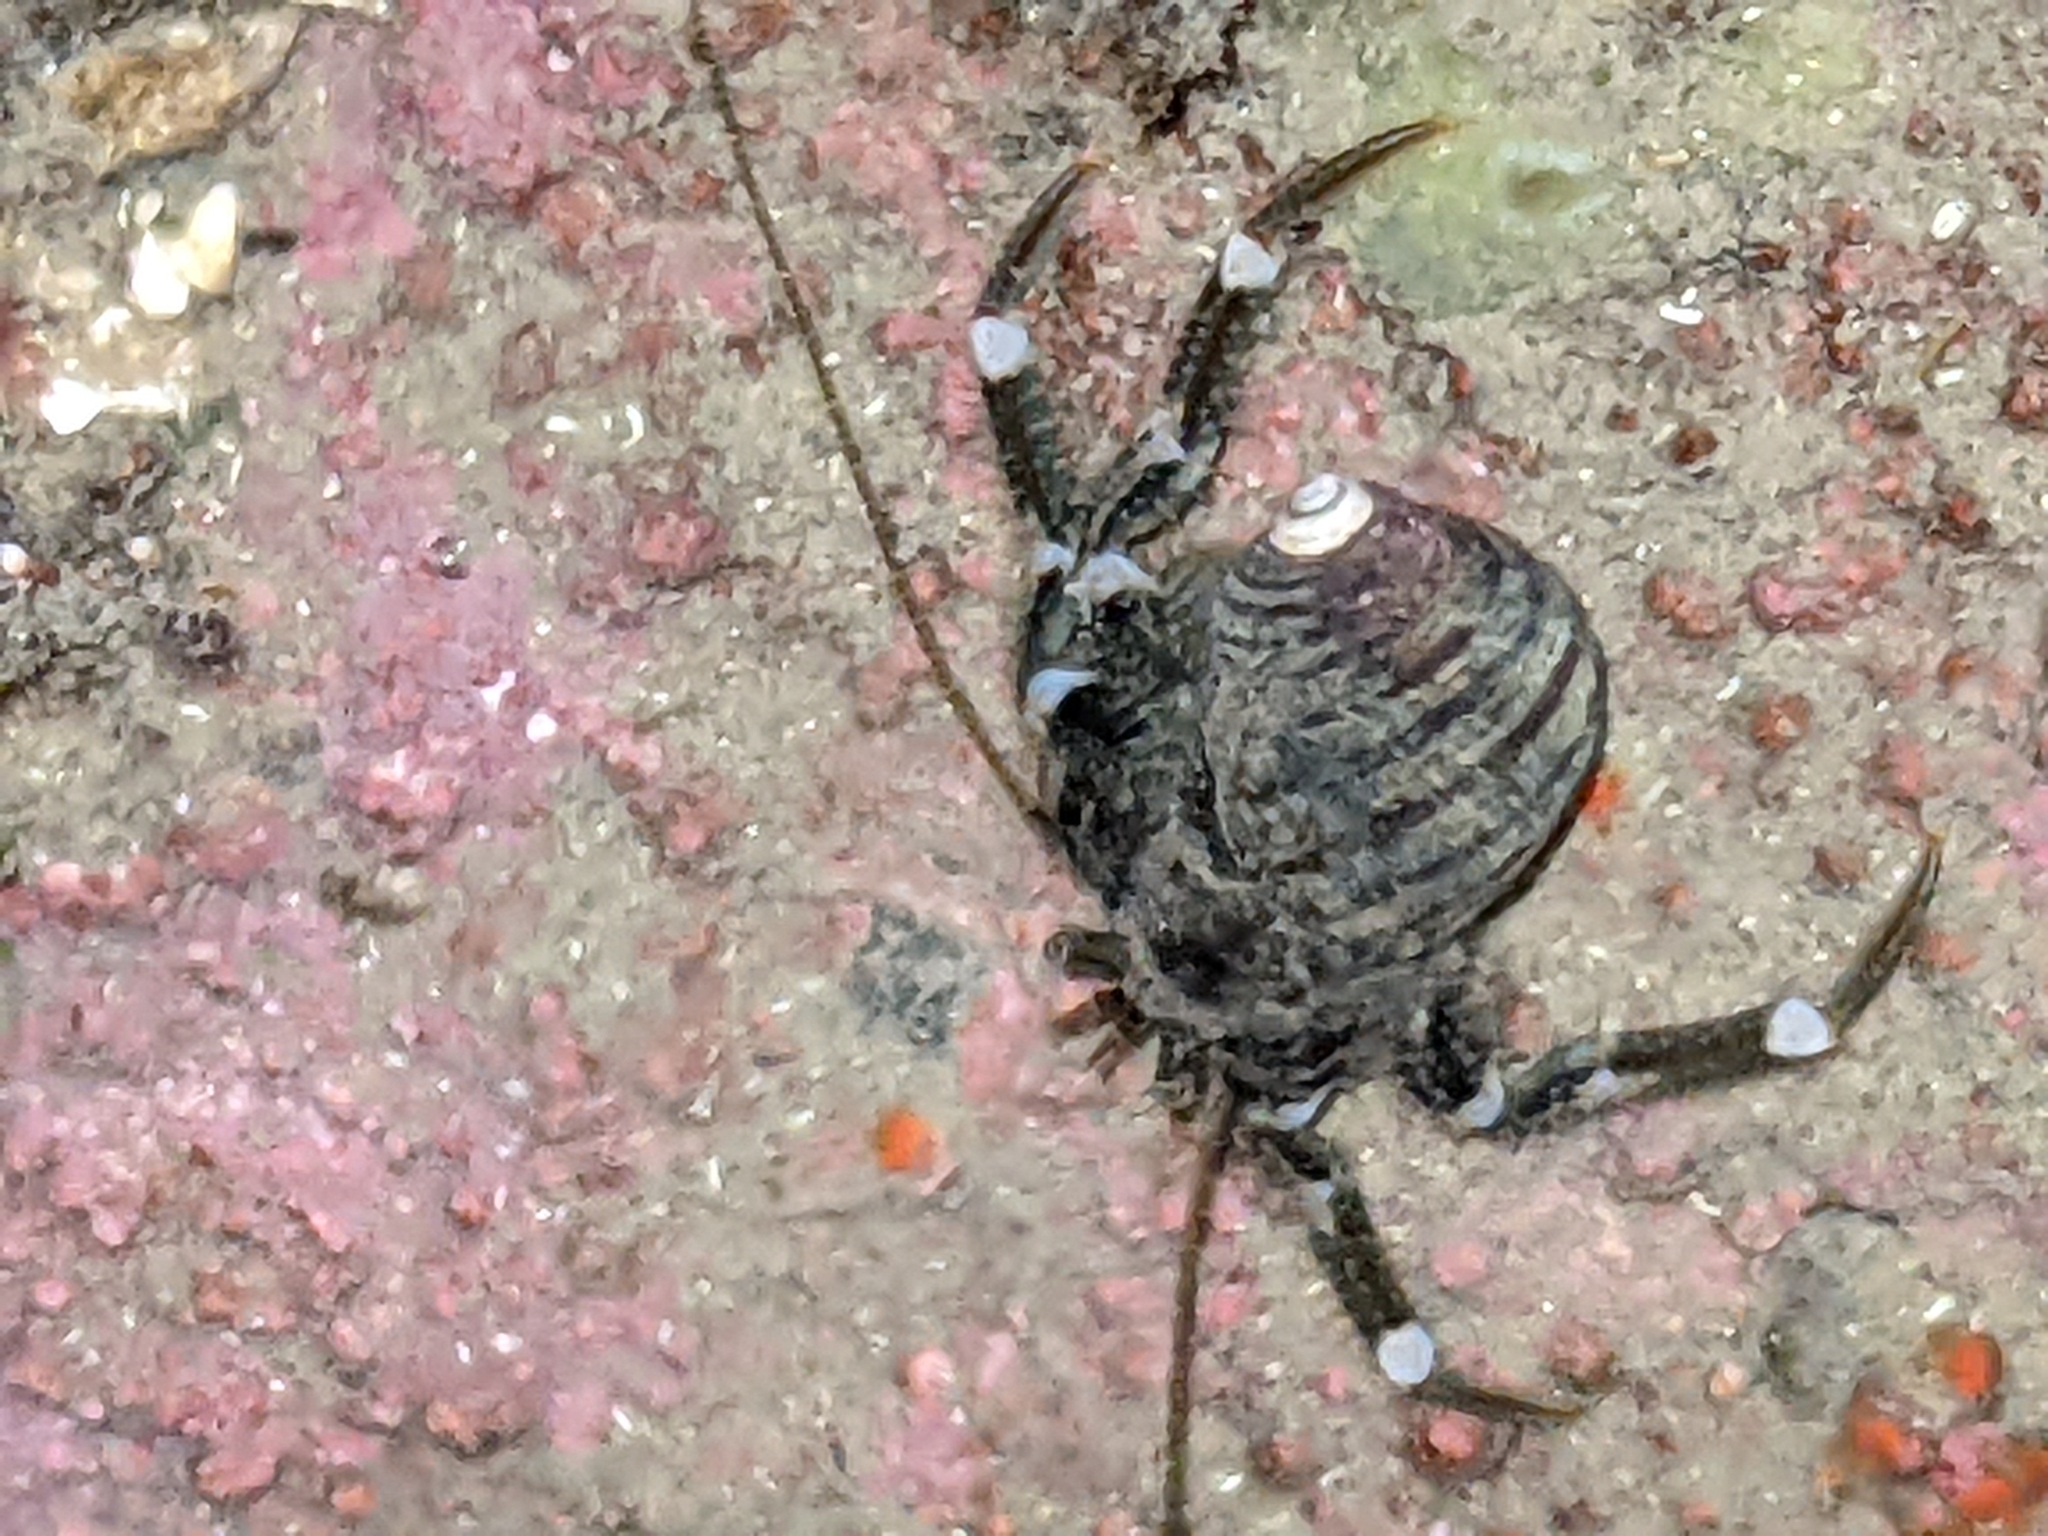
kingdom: Animalia
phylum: Arthropoda
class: Malacostraca
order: Decapoda
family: Paguridae
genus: Pagurus
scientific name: Pagurus hirsutiusculus
